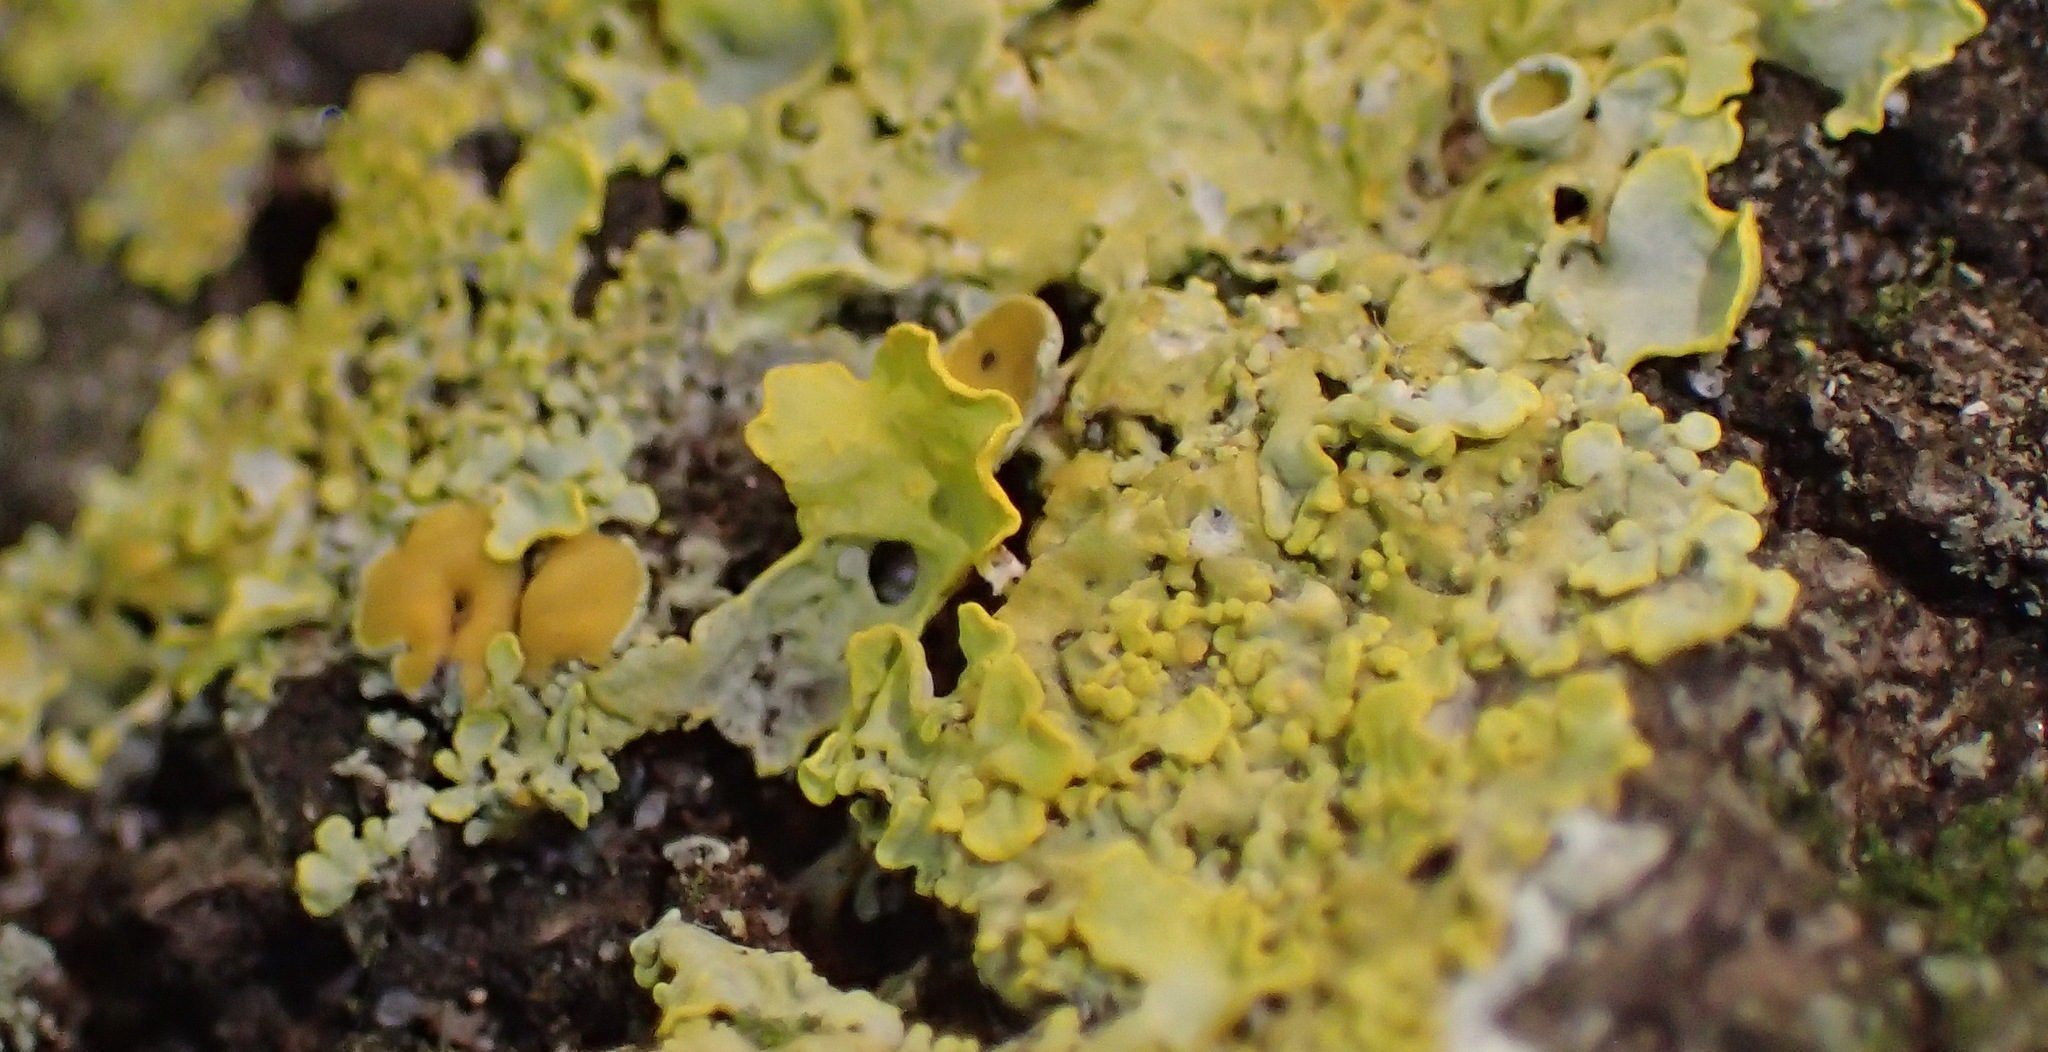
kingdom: Fungi
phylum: Ascomycota
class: Lecanoromycetes
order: Teloschistales
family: Teloschistaceae
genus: Xanthoria
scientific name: Xanthoria parietina
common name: Common orange lichen
